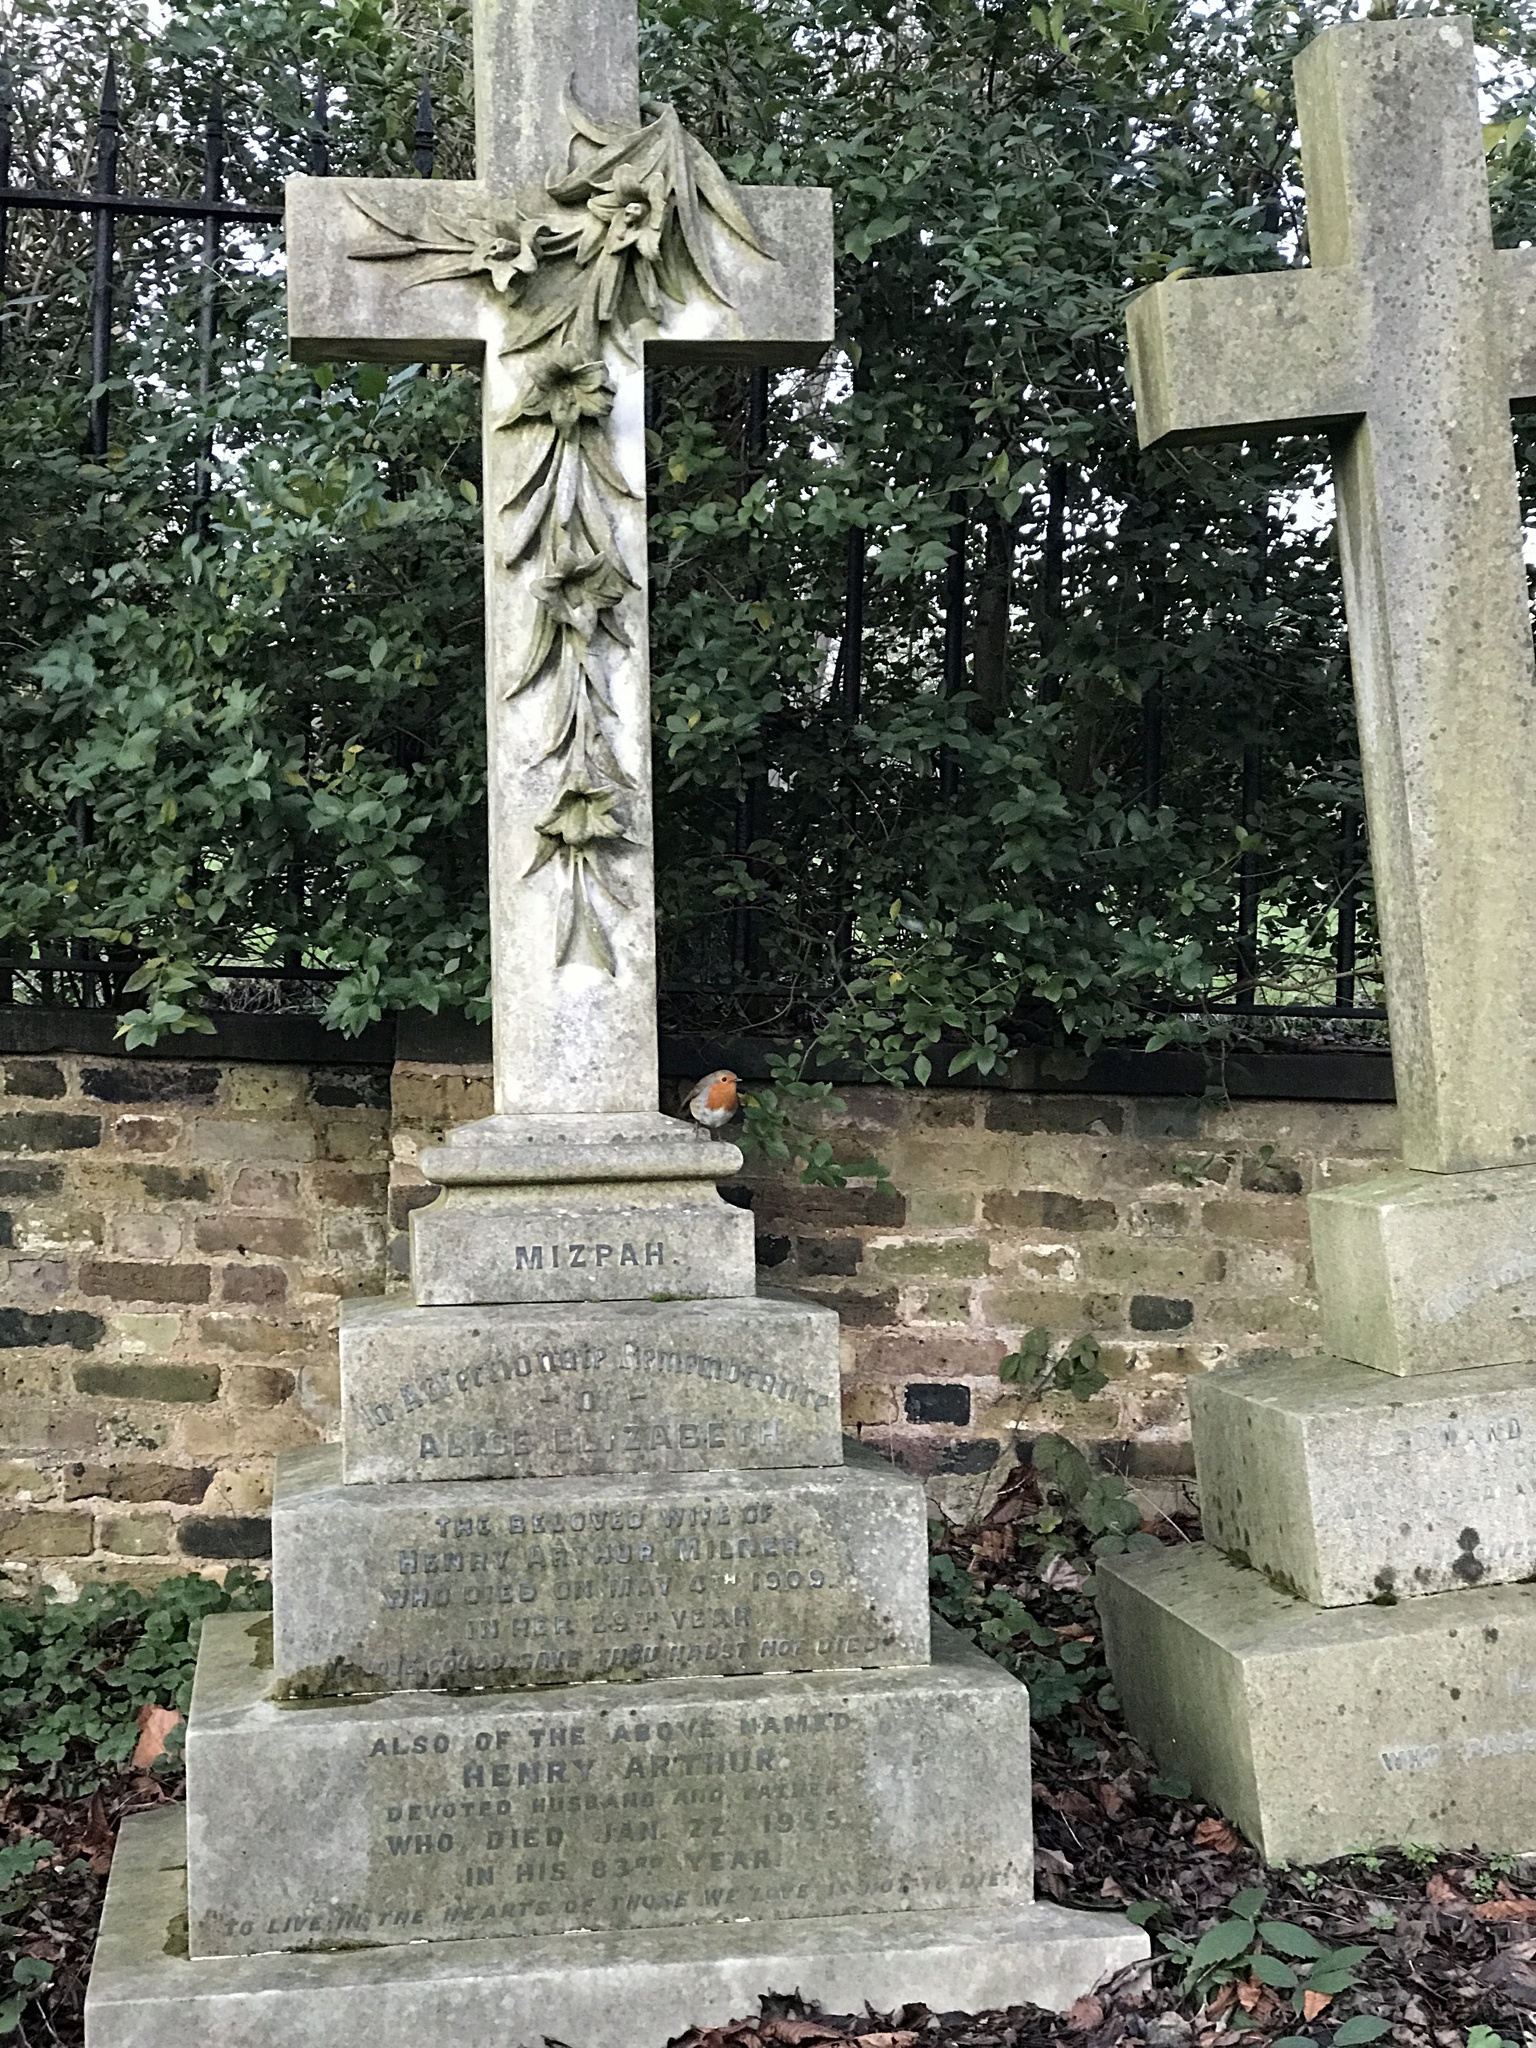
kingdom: Animalia
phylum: Chordata
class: Aves
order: Passeriformes
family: Muscicapidae
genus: Erithacus
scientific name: Erithacus rubecula
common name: European robin
